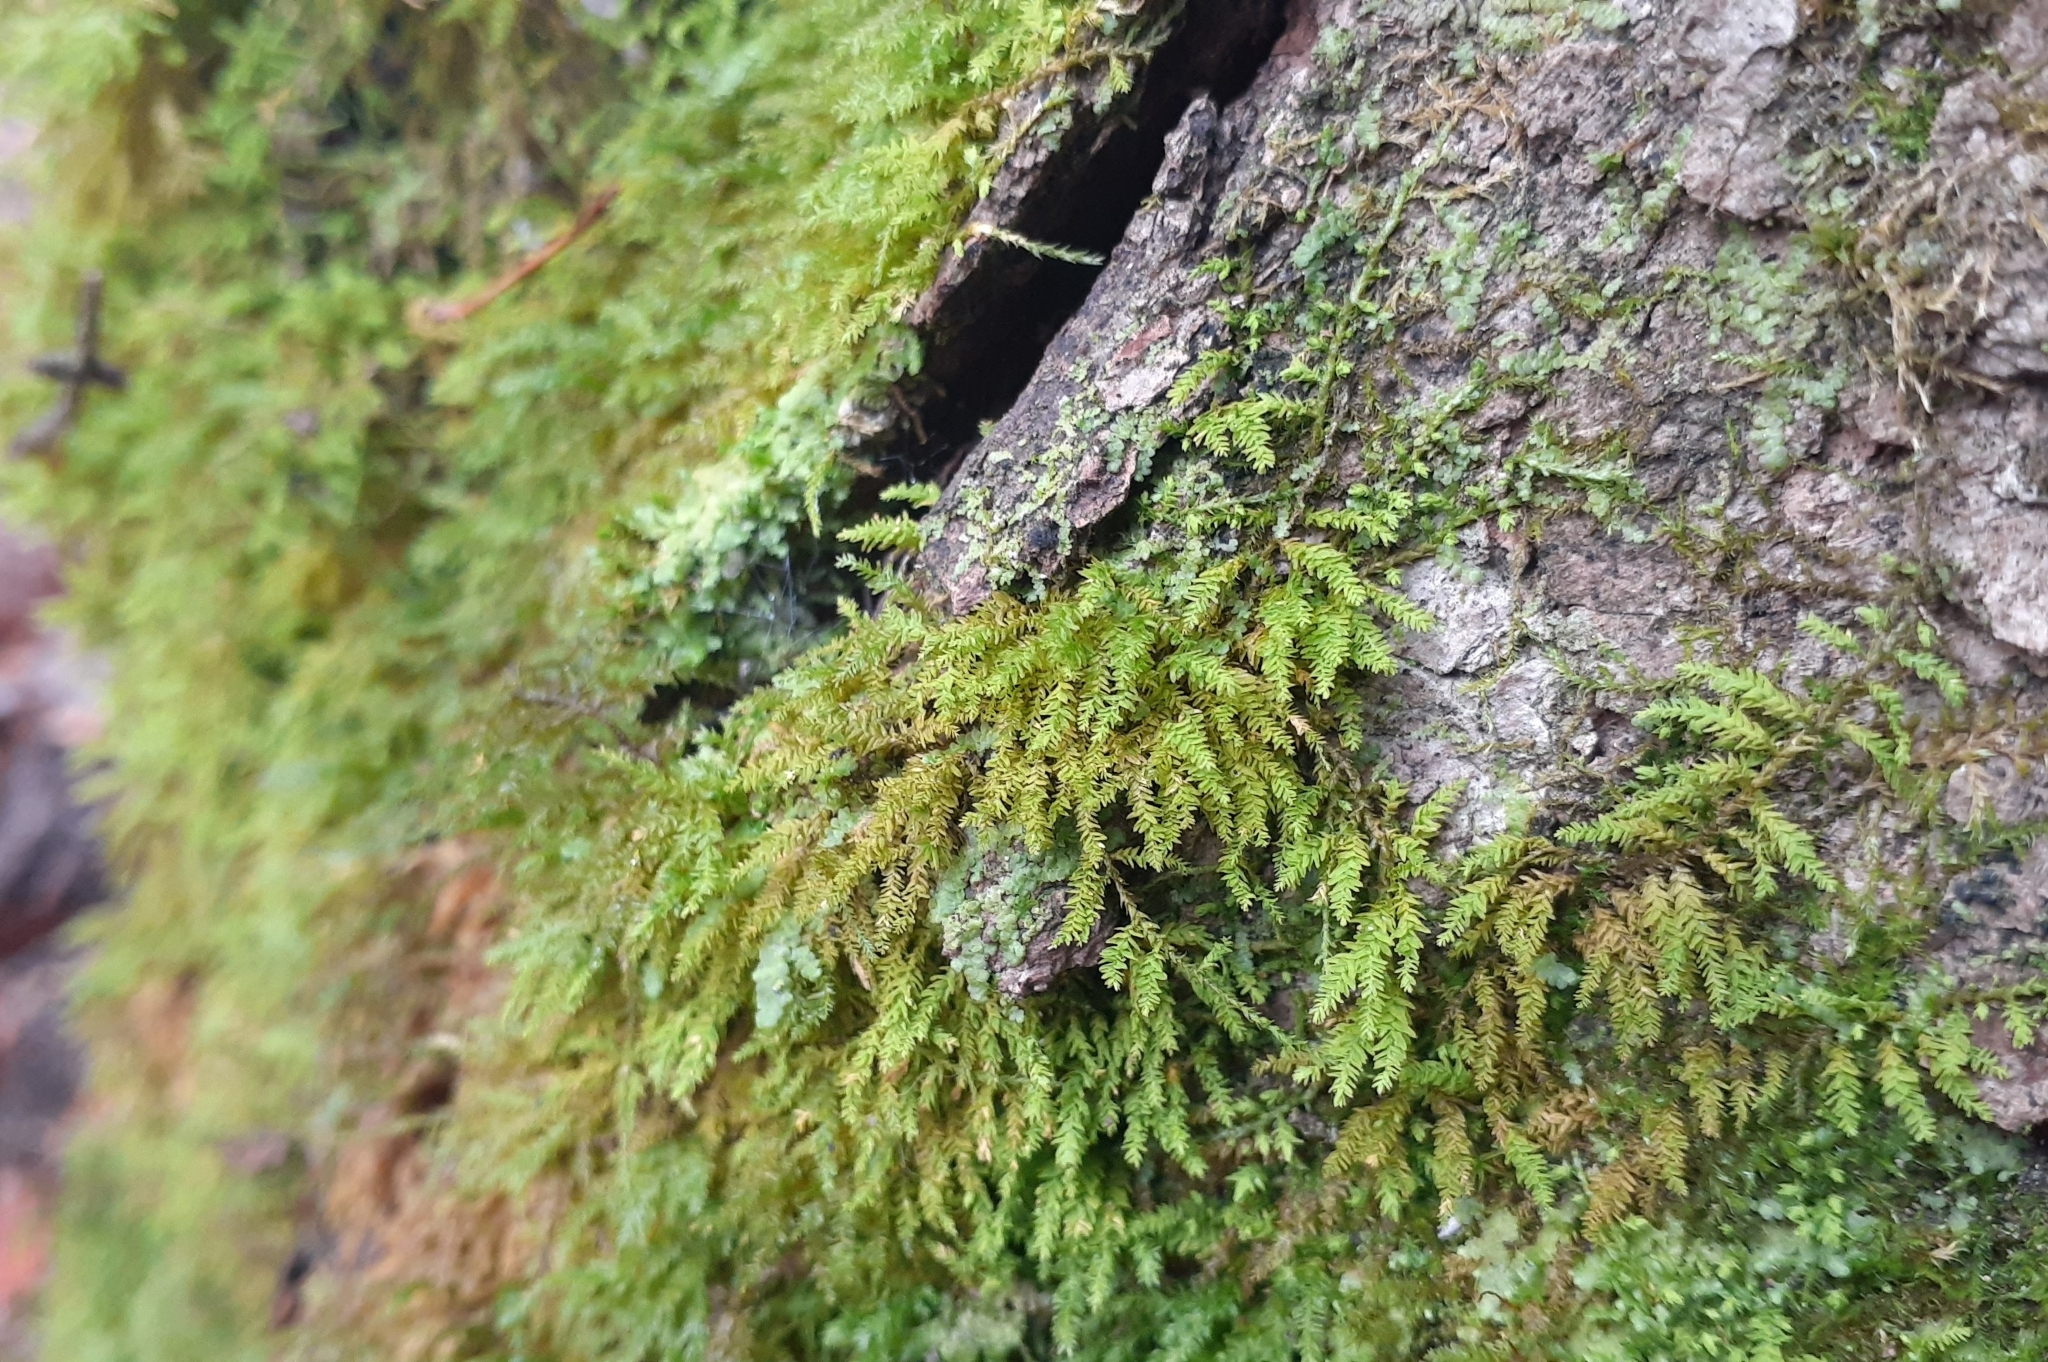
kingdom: Plantae
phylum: Bryophyta
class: Bryopsida
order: Hypnales
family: Neckeraceae
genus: Pseudanomodon
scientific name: Pseudanomodon attenuatus
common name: Tree-skirt moss
